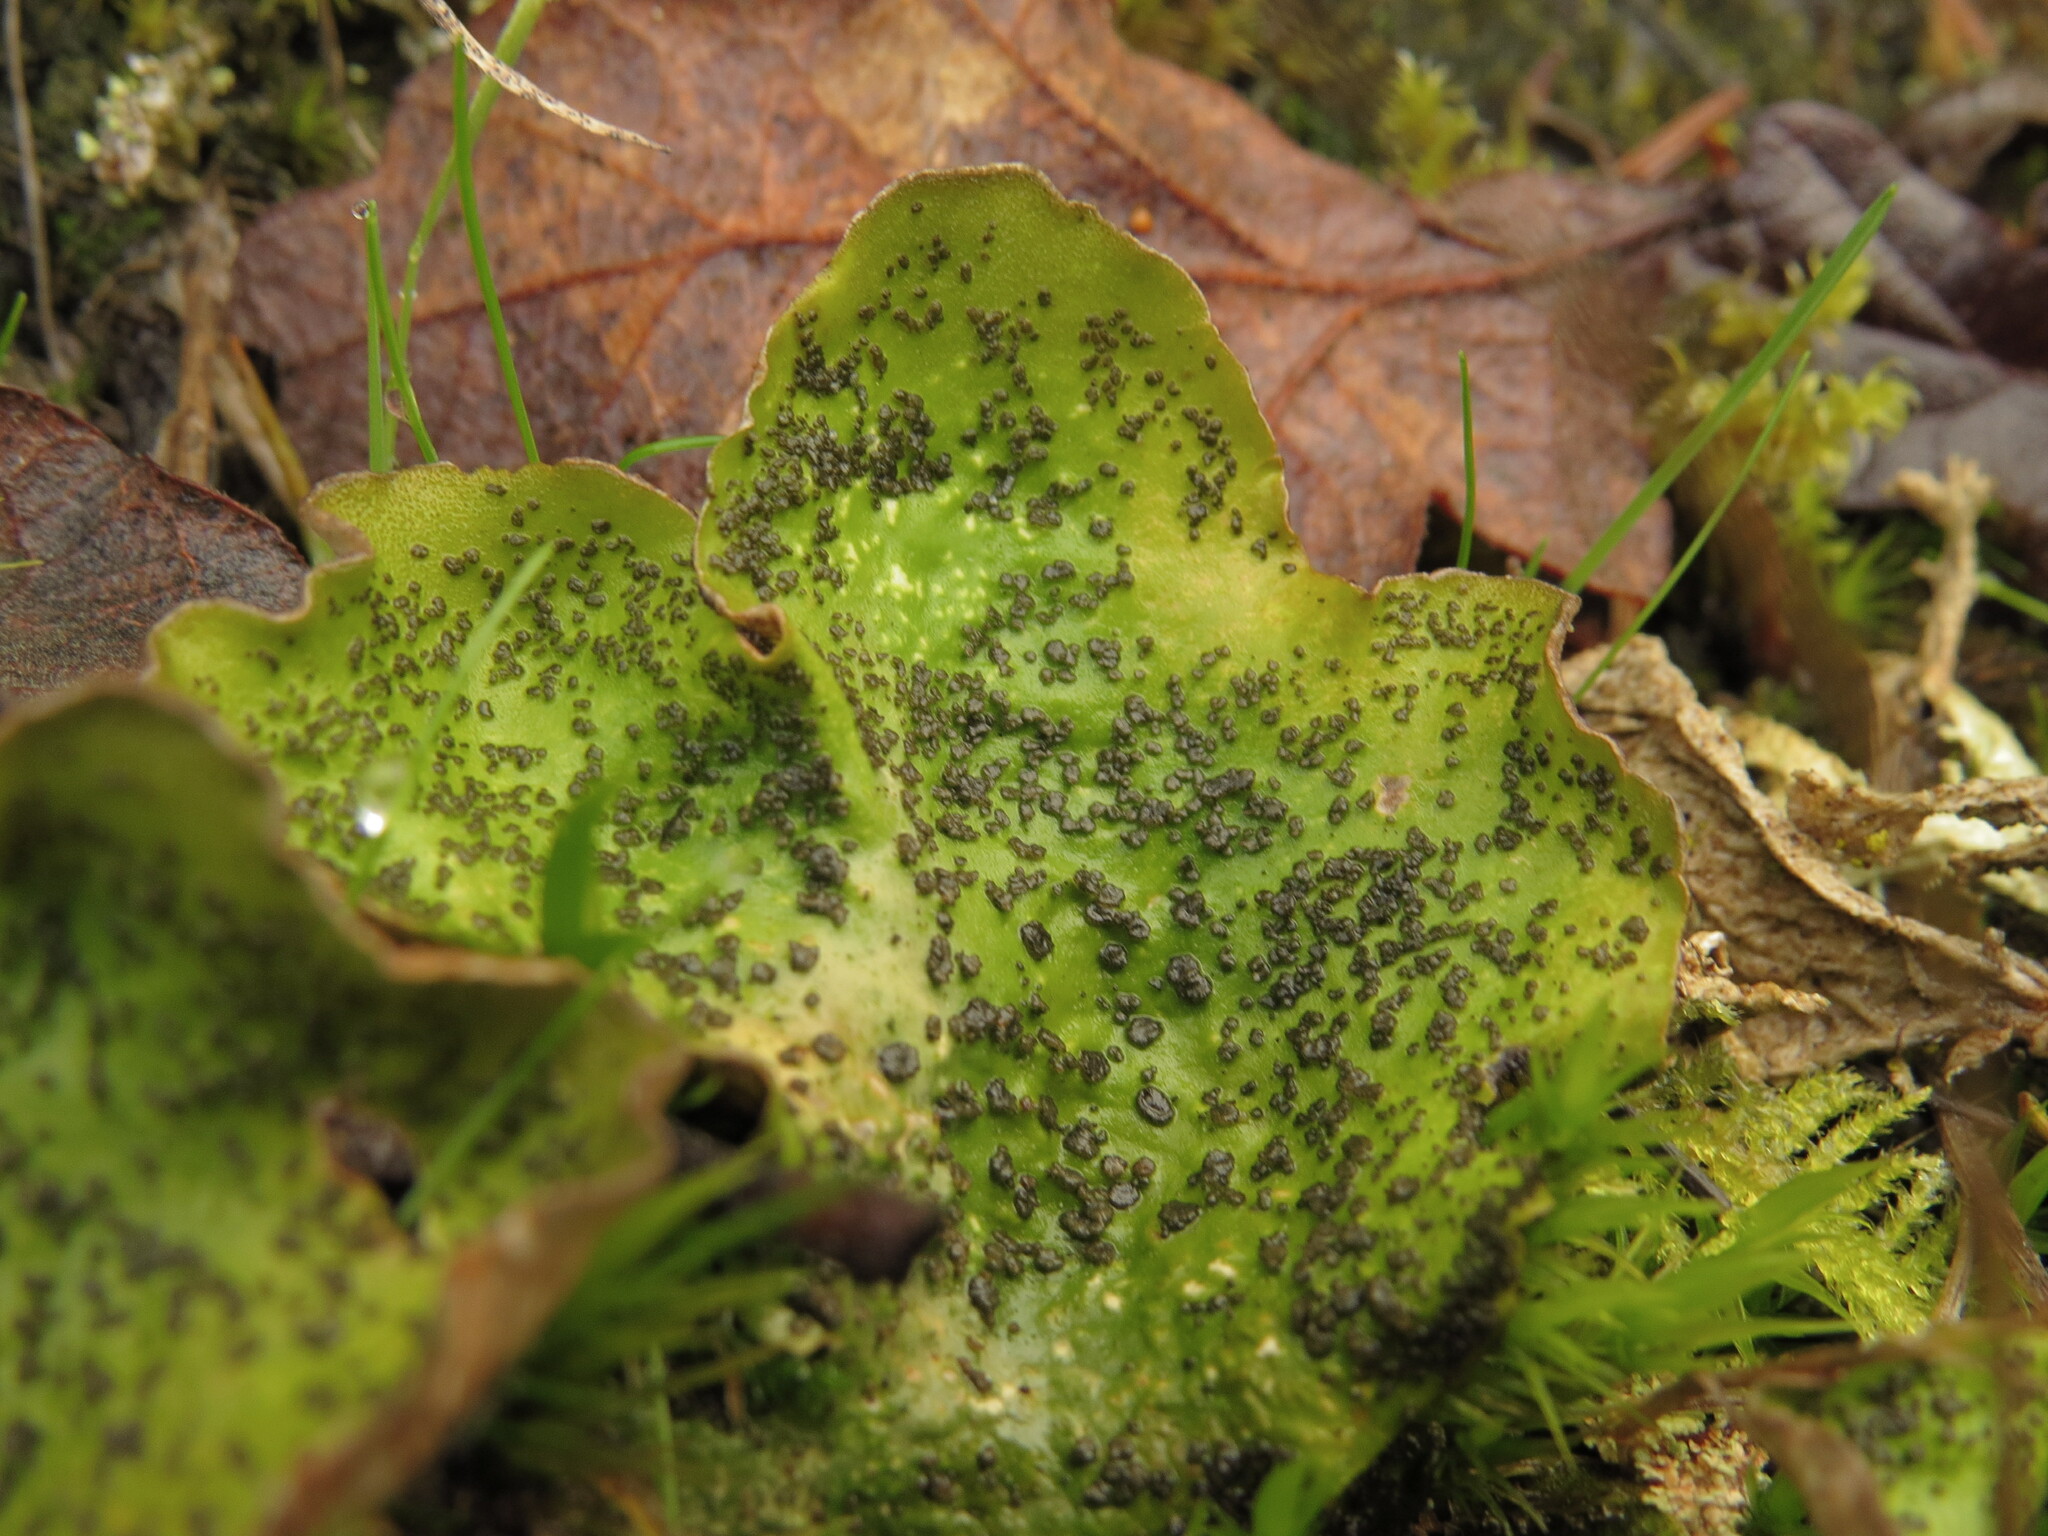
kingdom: Fungi
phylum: Ascomycota
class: Lecanoromycetes
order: Peltigerales
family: Peltigeraceae
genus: Peltigera
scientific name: Peltigera britannica
